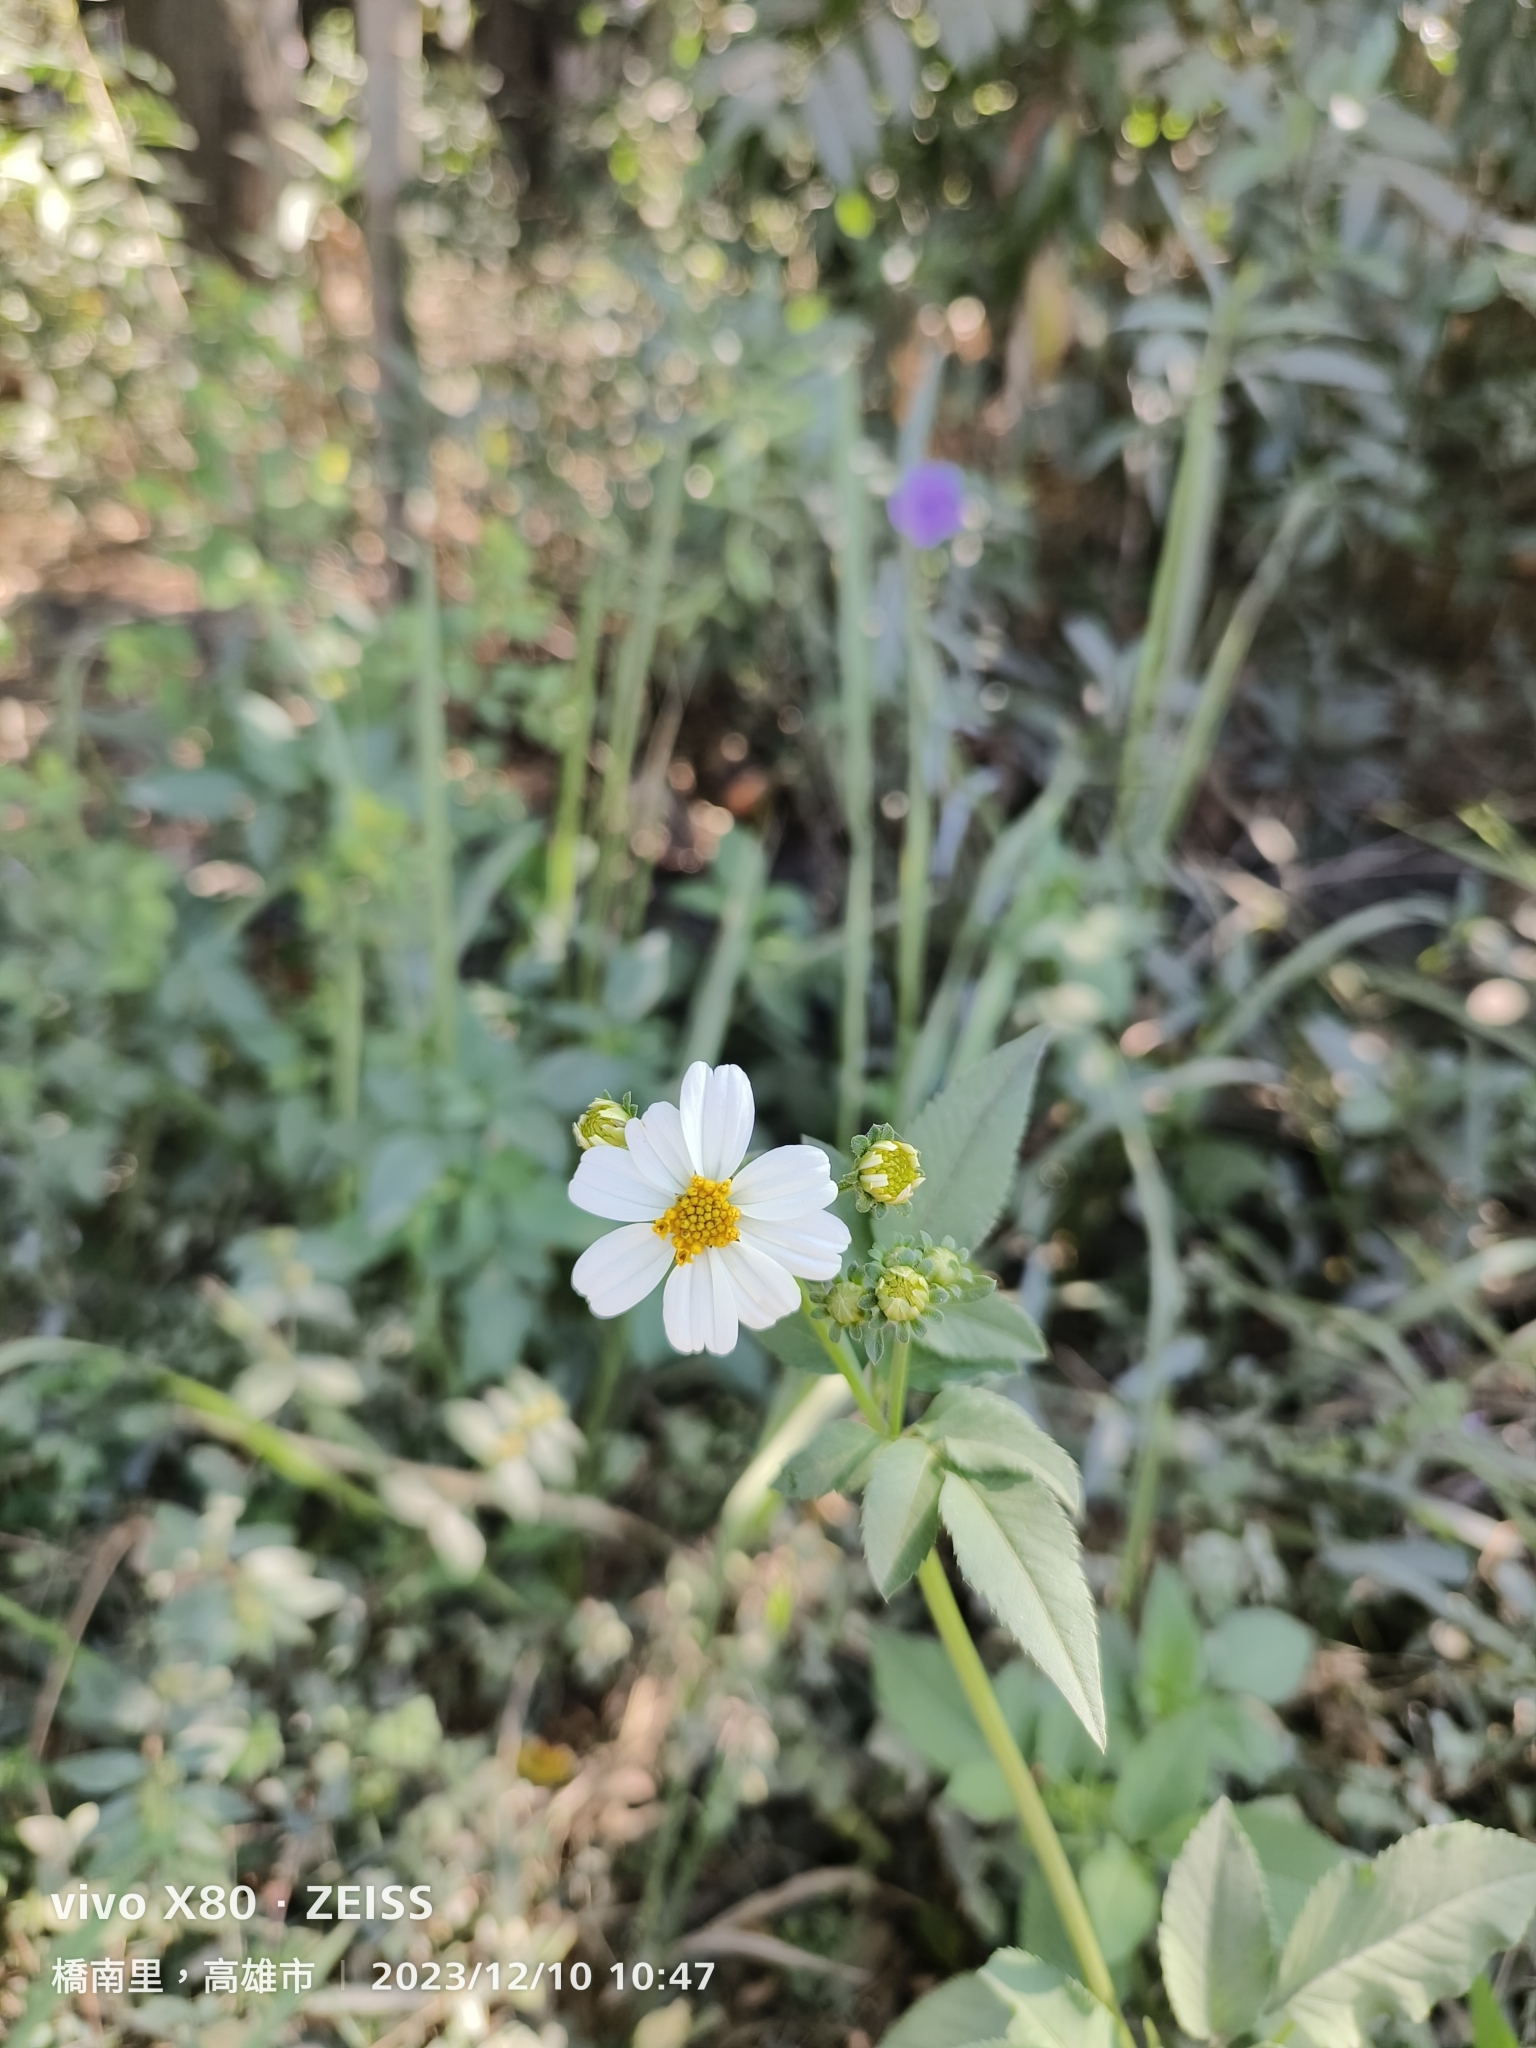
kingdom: Plantae
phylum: Tracheophyta
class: Magnoliopsida
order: Asterales
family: Asteraceae
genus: Bidens
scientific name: Bidens alba
